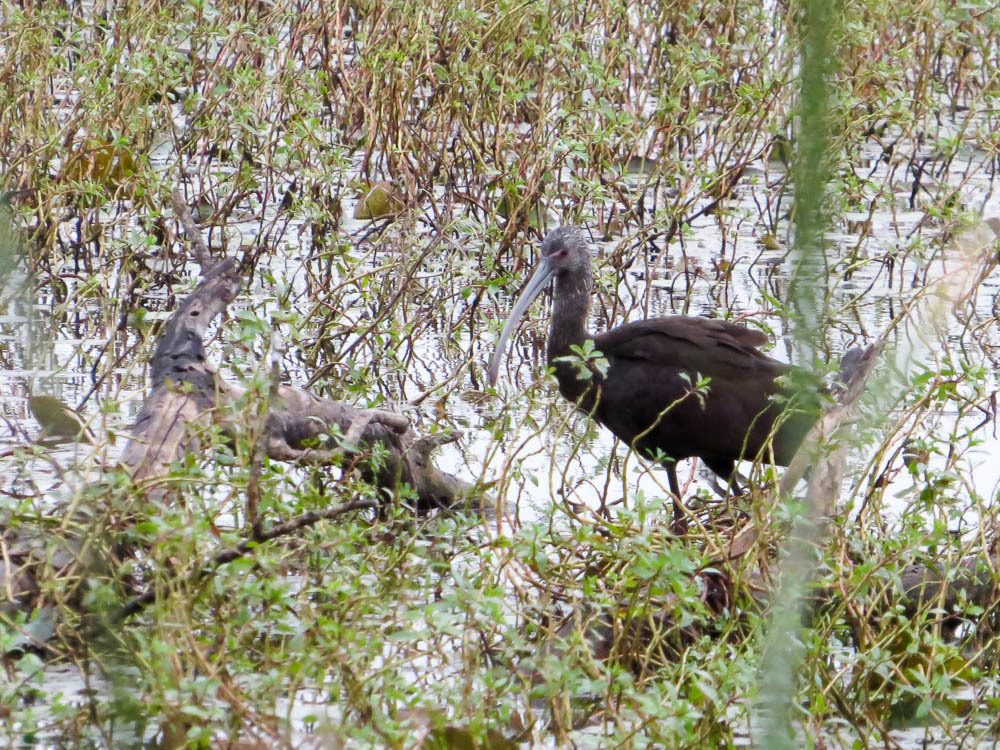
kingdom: Animalia
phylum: Chordata
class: Aves
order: Pelecaniformes
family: Threskiornithidae
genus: Plegadis
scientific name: Plegadis chihi
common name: White-faced ibis
